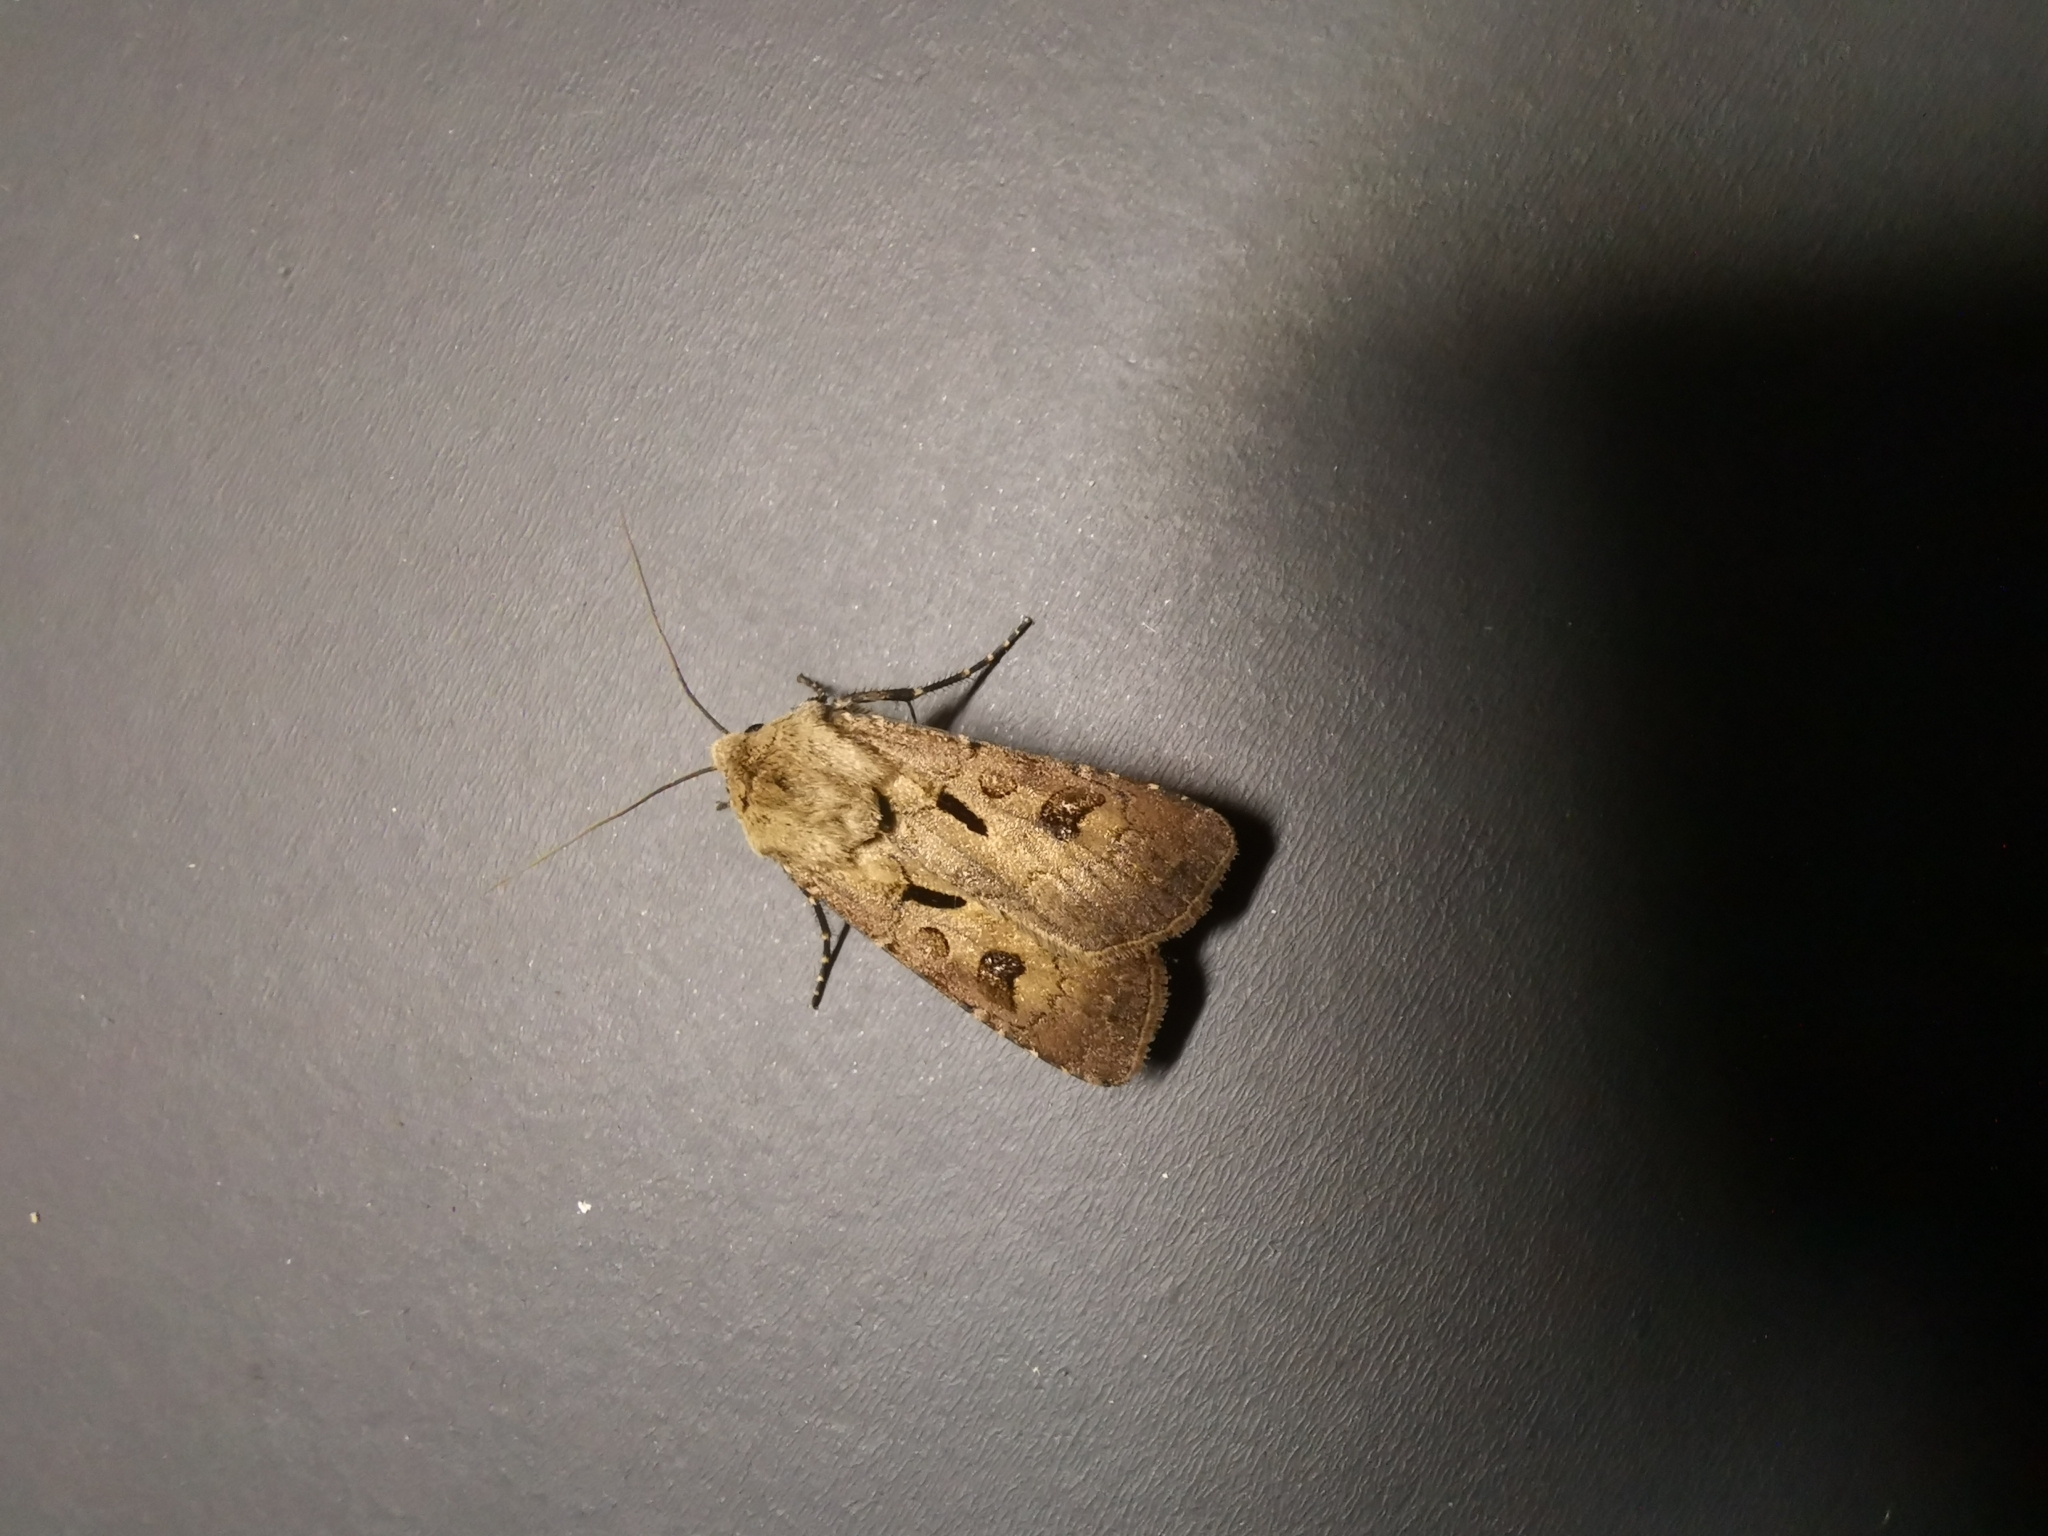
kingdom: Animalia
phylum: Arthropoda
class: Insecta
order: Lepidoptera
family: Noctuidae
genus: Agrotis
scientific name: Agrotis exclamationis
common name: Heart and dart
